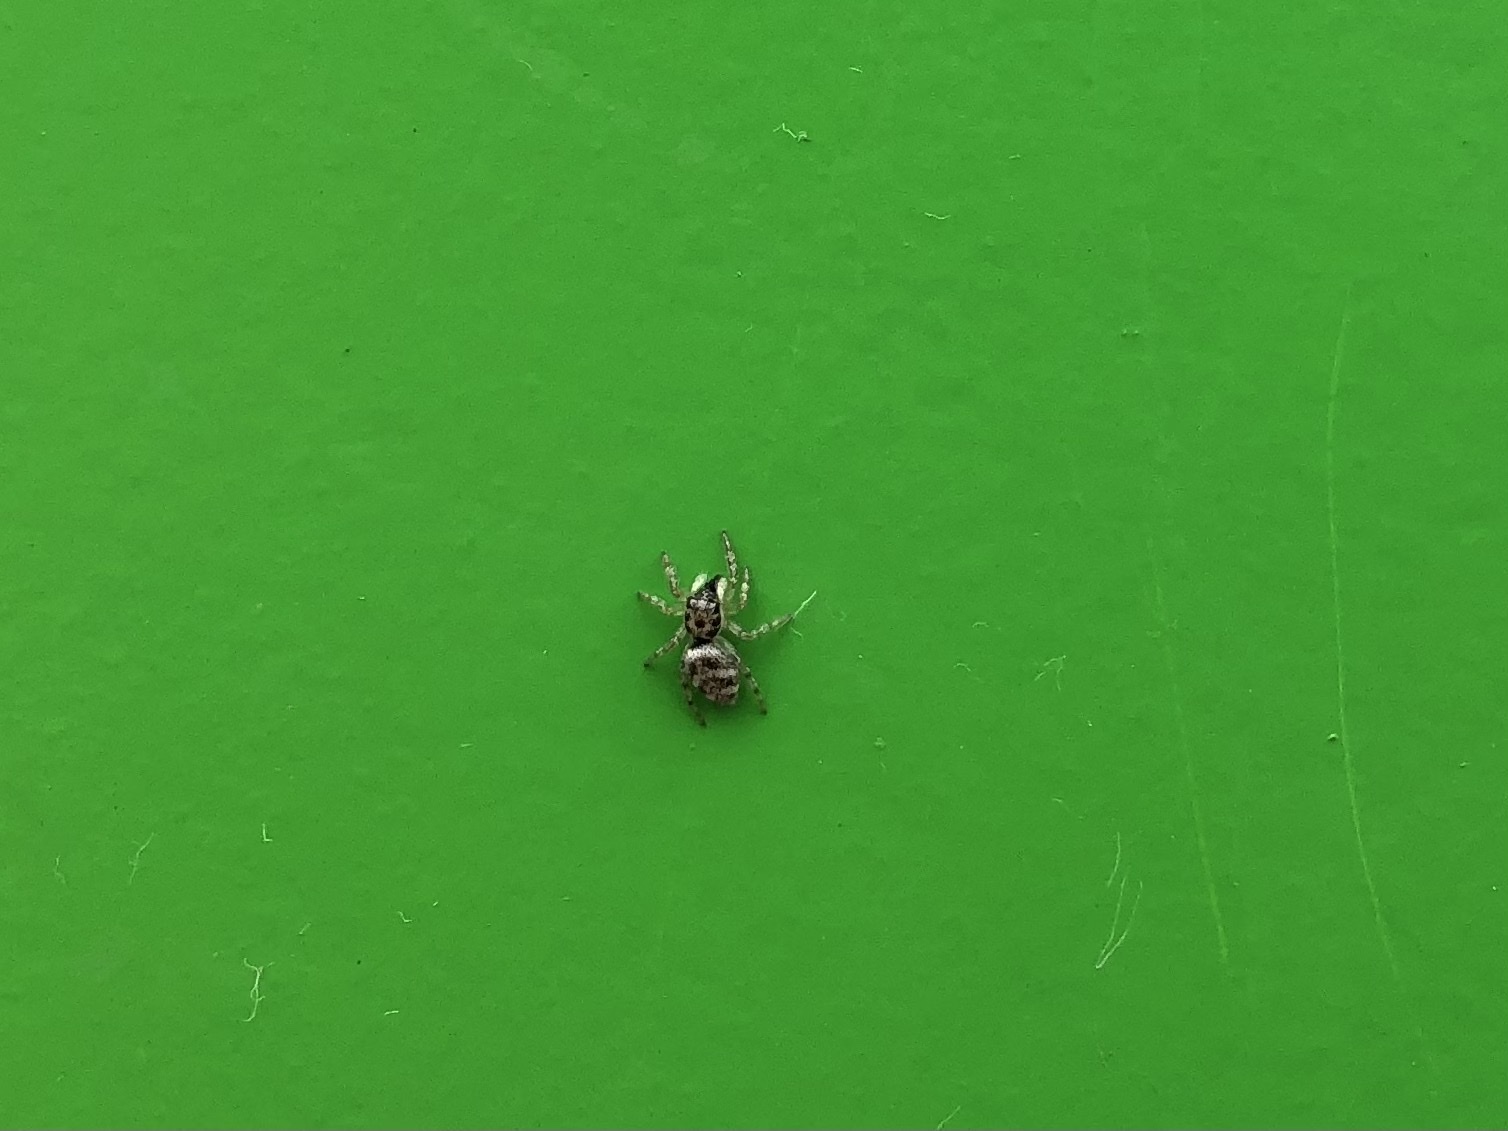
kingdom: Animalia
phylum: Arthropoda
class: Arachnida
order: Araneae
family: Salticidae
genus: Salticus
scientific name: Salticus scenicus
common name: Zebra jumper
